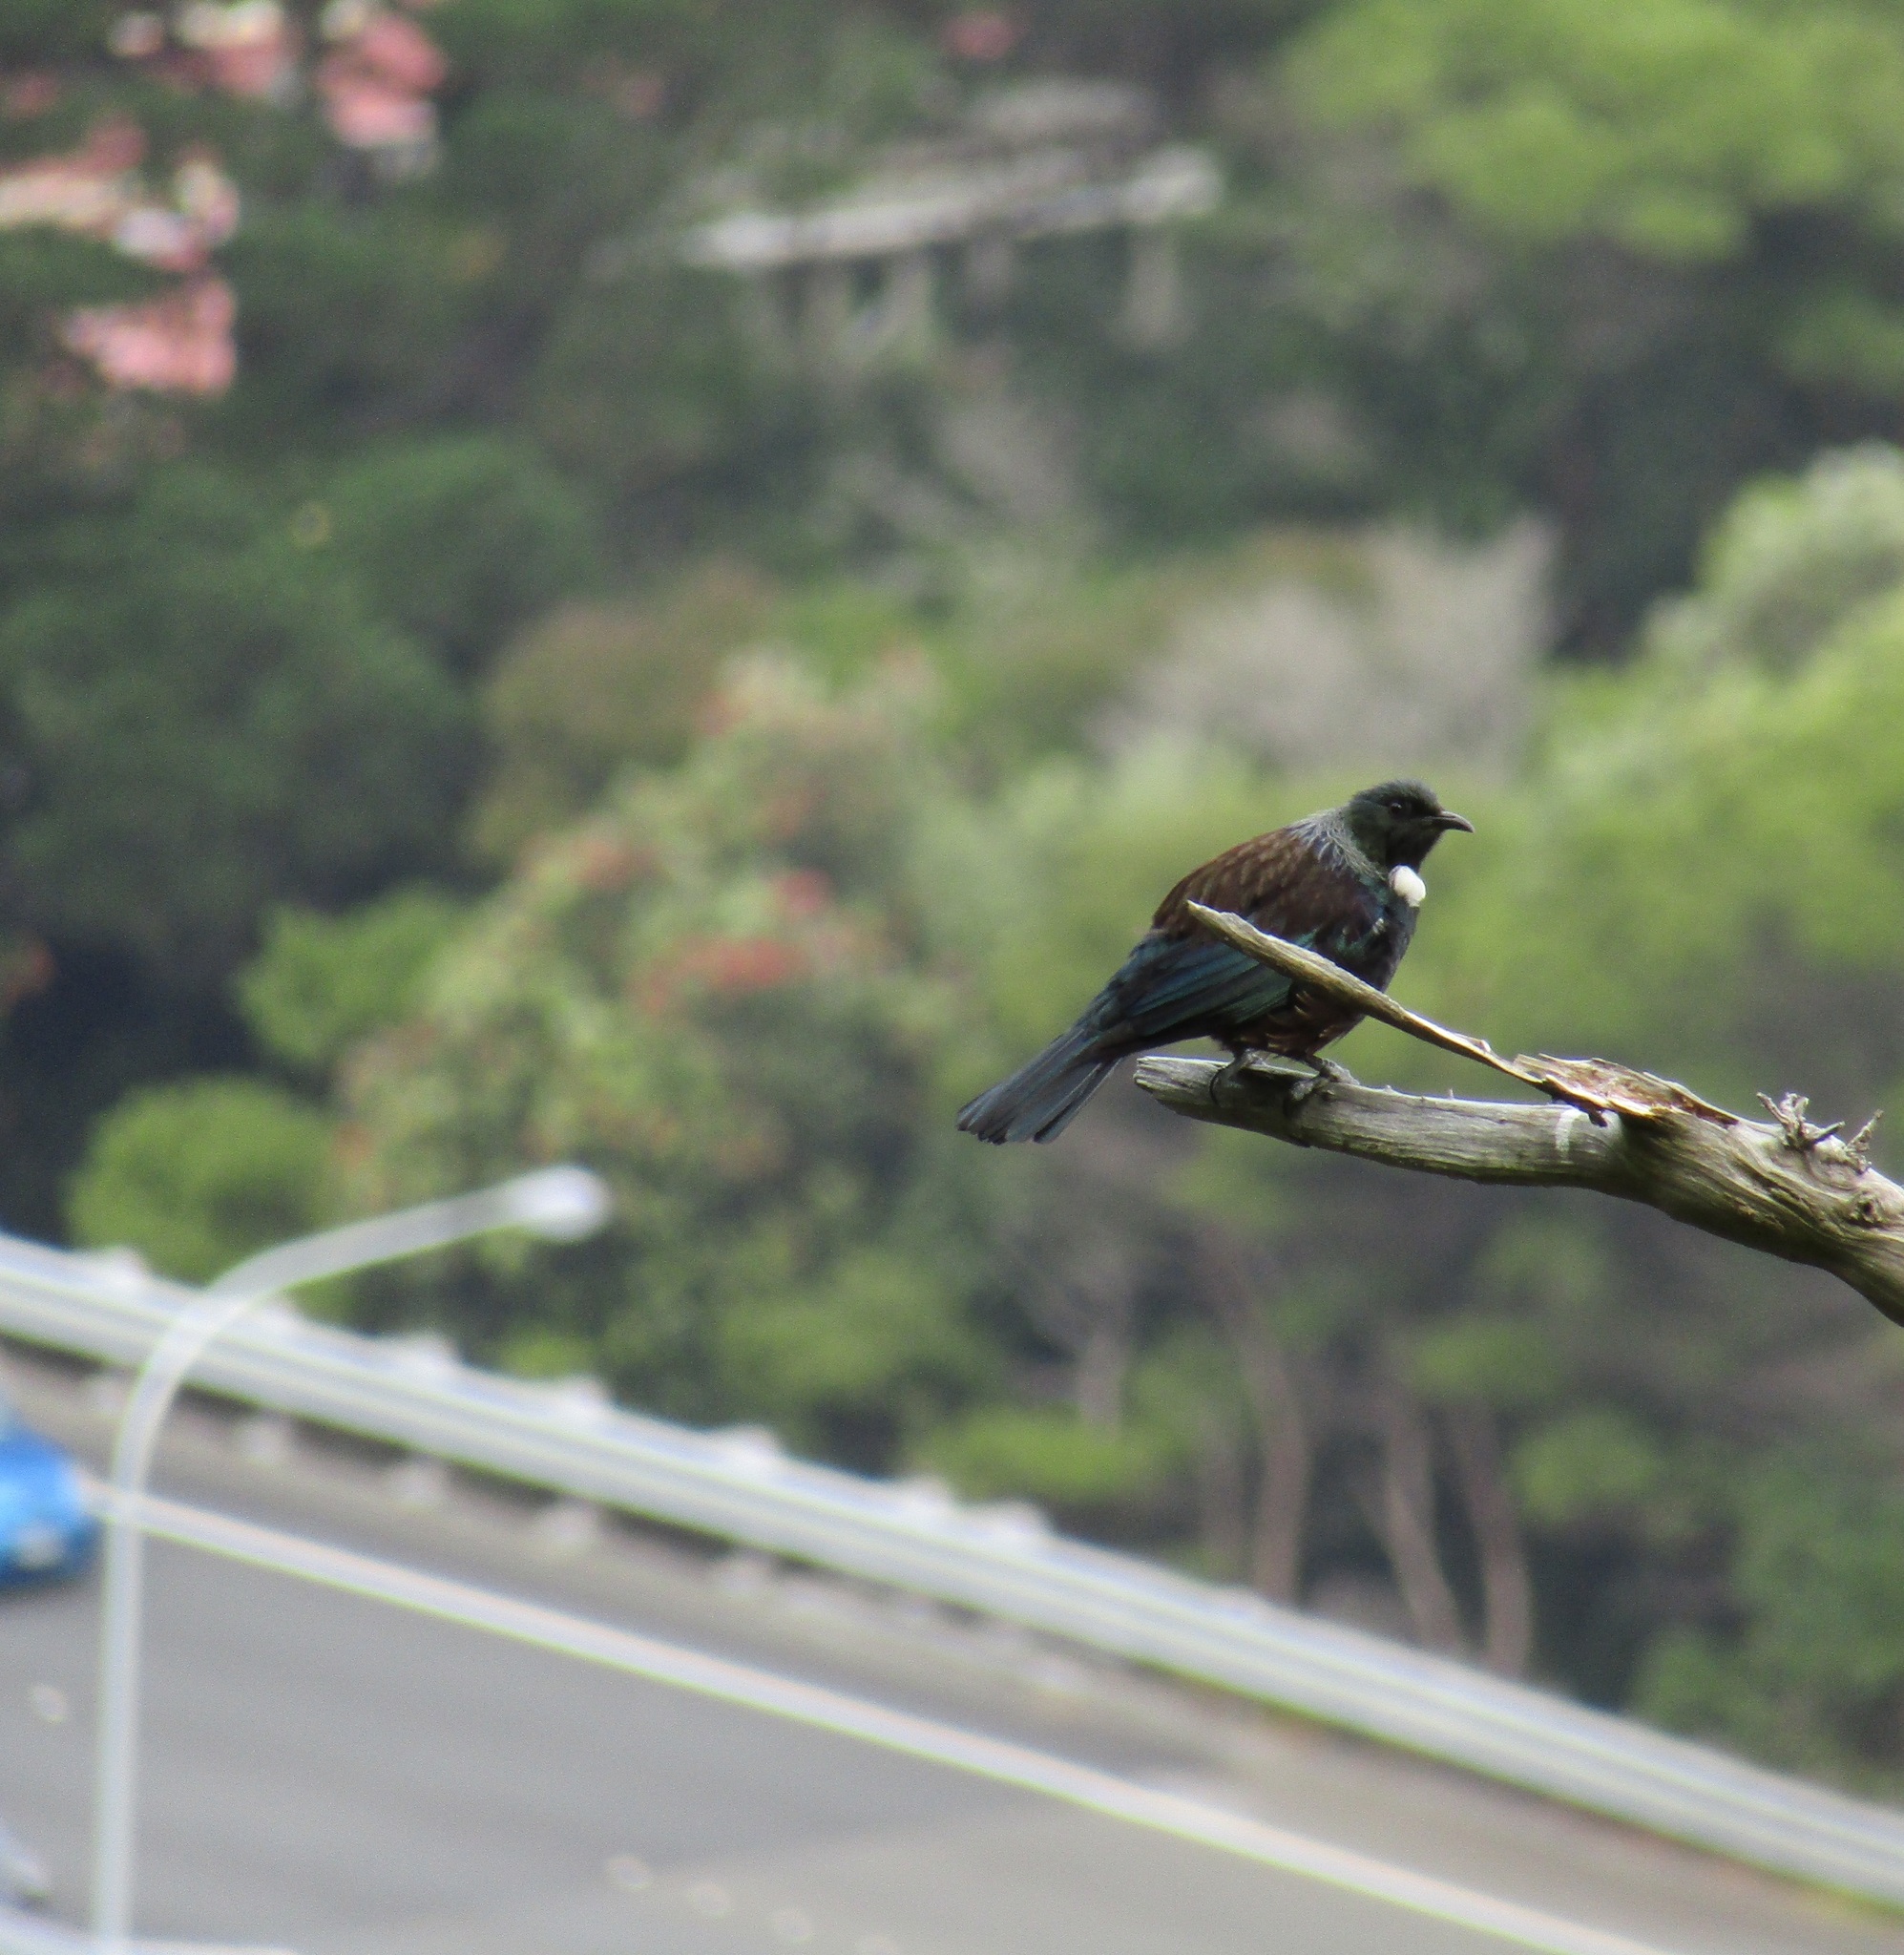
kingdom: Animalia
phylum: Chordata
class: Aves
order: Passeriformes
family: Meliphagidae
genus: Prosthemadera
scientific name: Prosthemadera novaeseelandiae
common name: Tui
